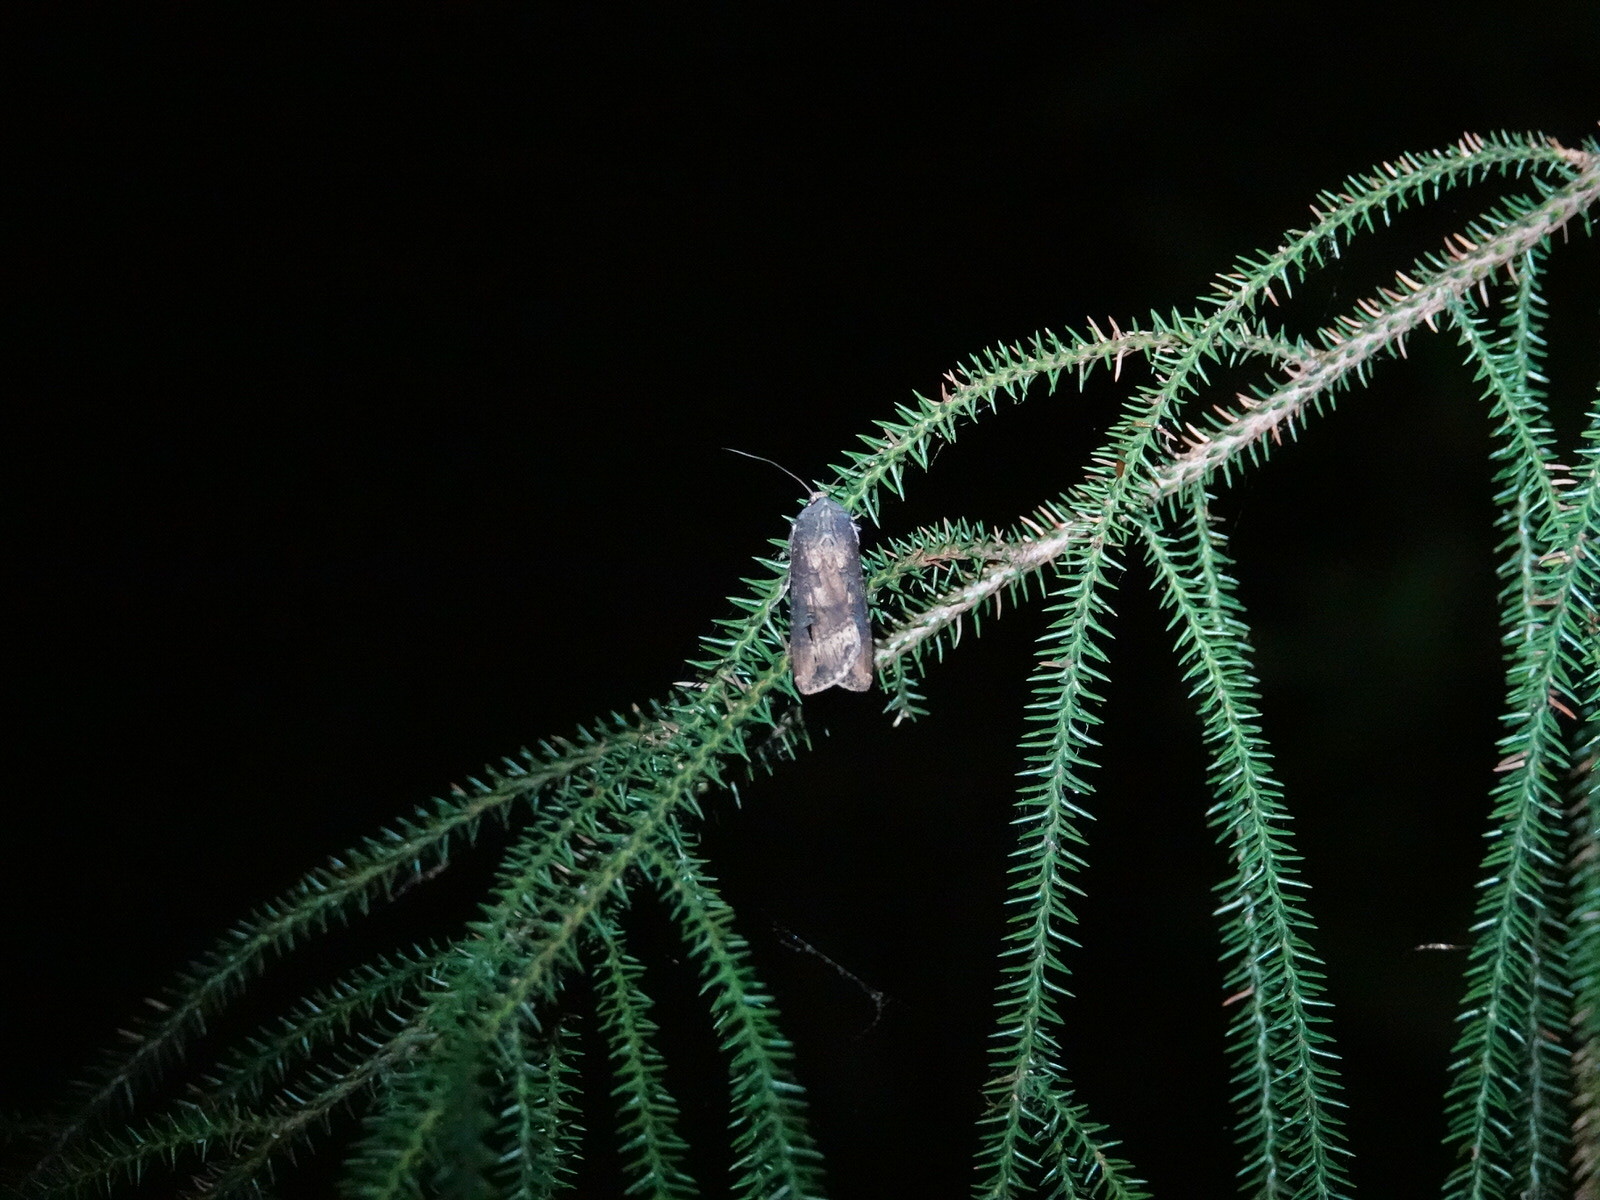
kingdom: Animalia
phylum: Arthropoda
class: Insecta
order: Lepidoptera
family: Noctuidae
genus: Agrotis
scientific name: Agrotis ipsilon
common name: Dark sword-grass
